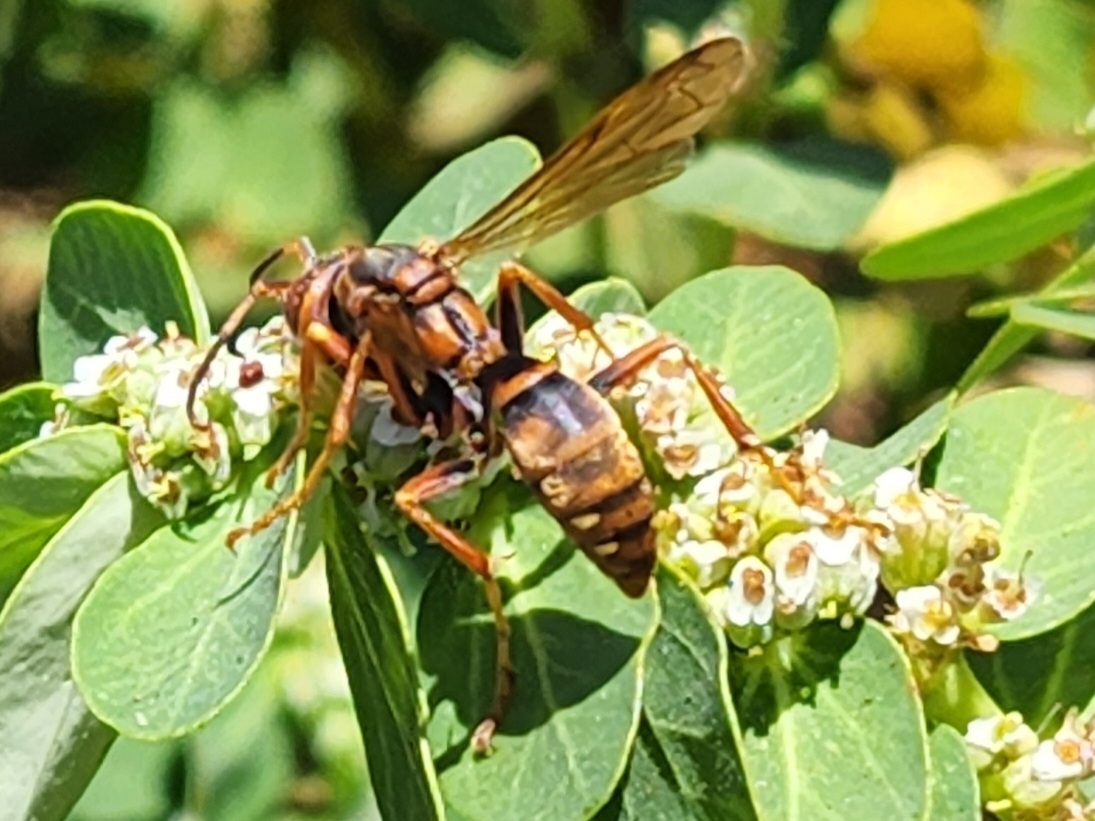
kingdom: Animalia
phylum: Arthropoda
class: Insecta
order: Hymenoptera
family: Eumenidae
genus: Polistes
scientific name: Polistes dorsalis
